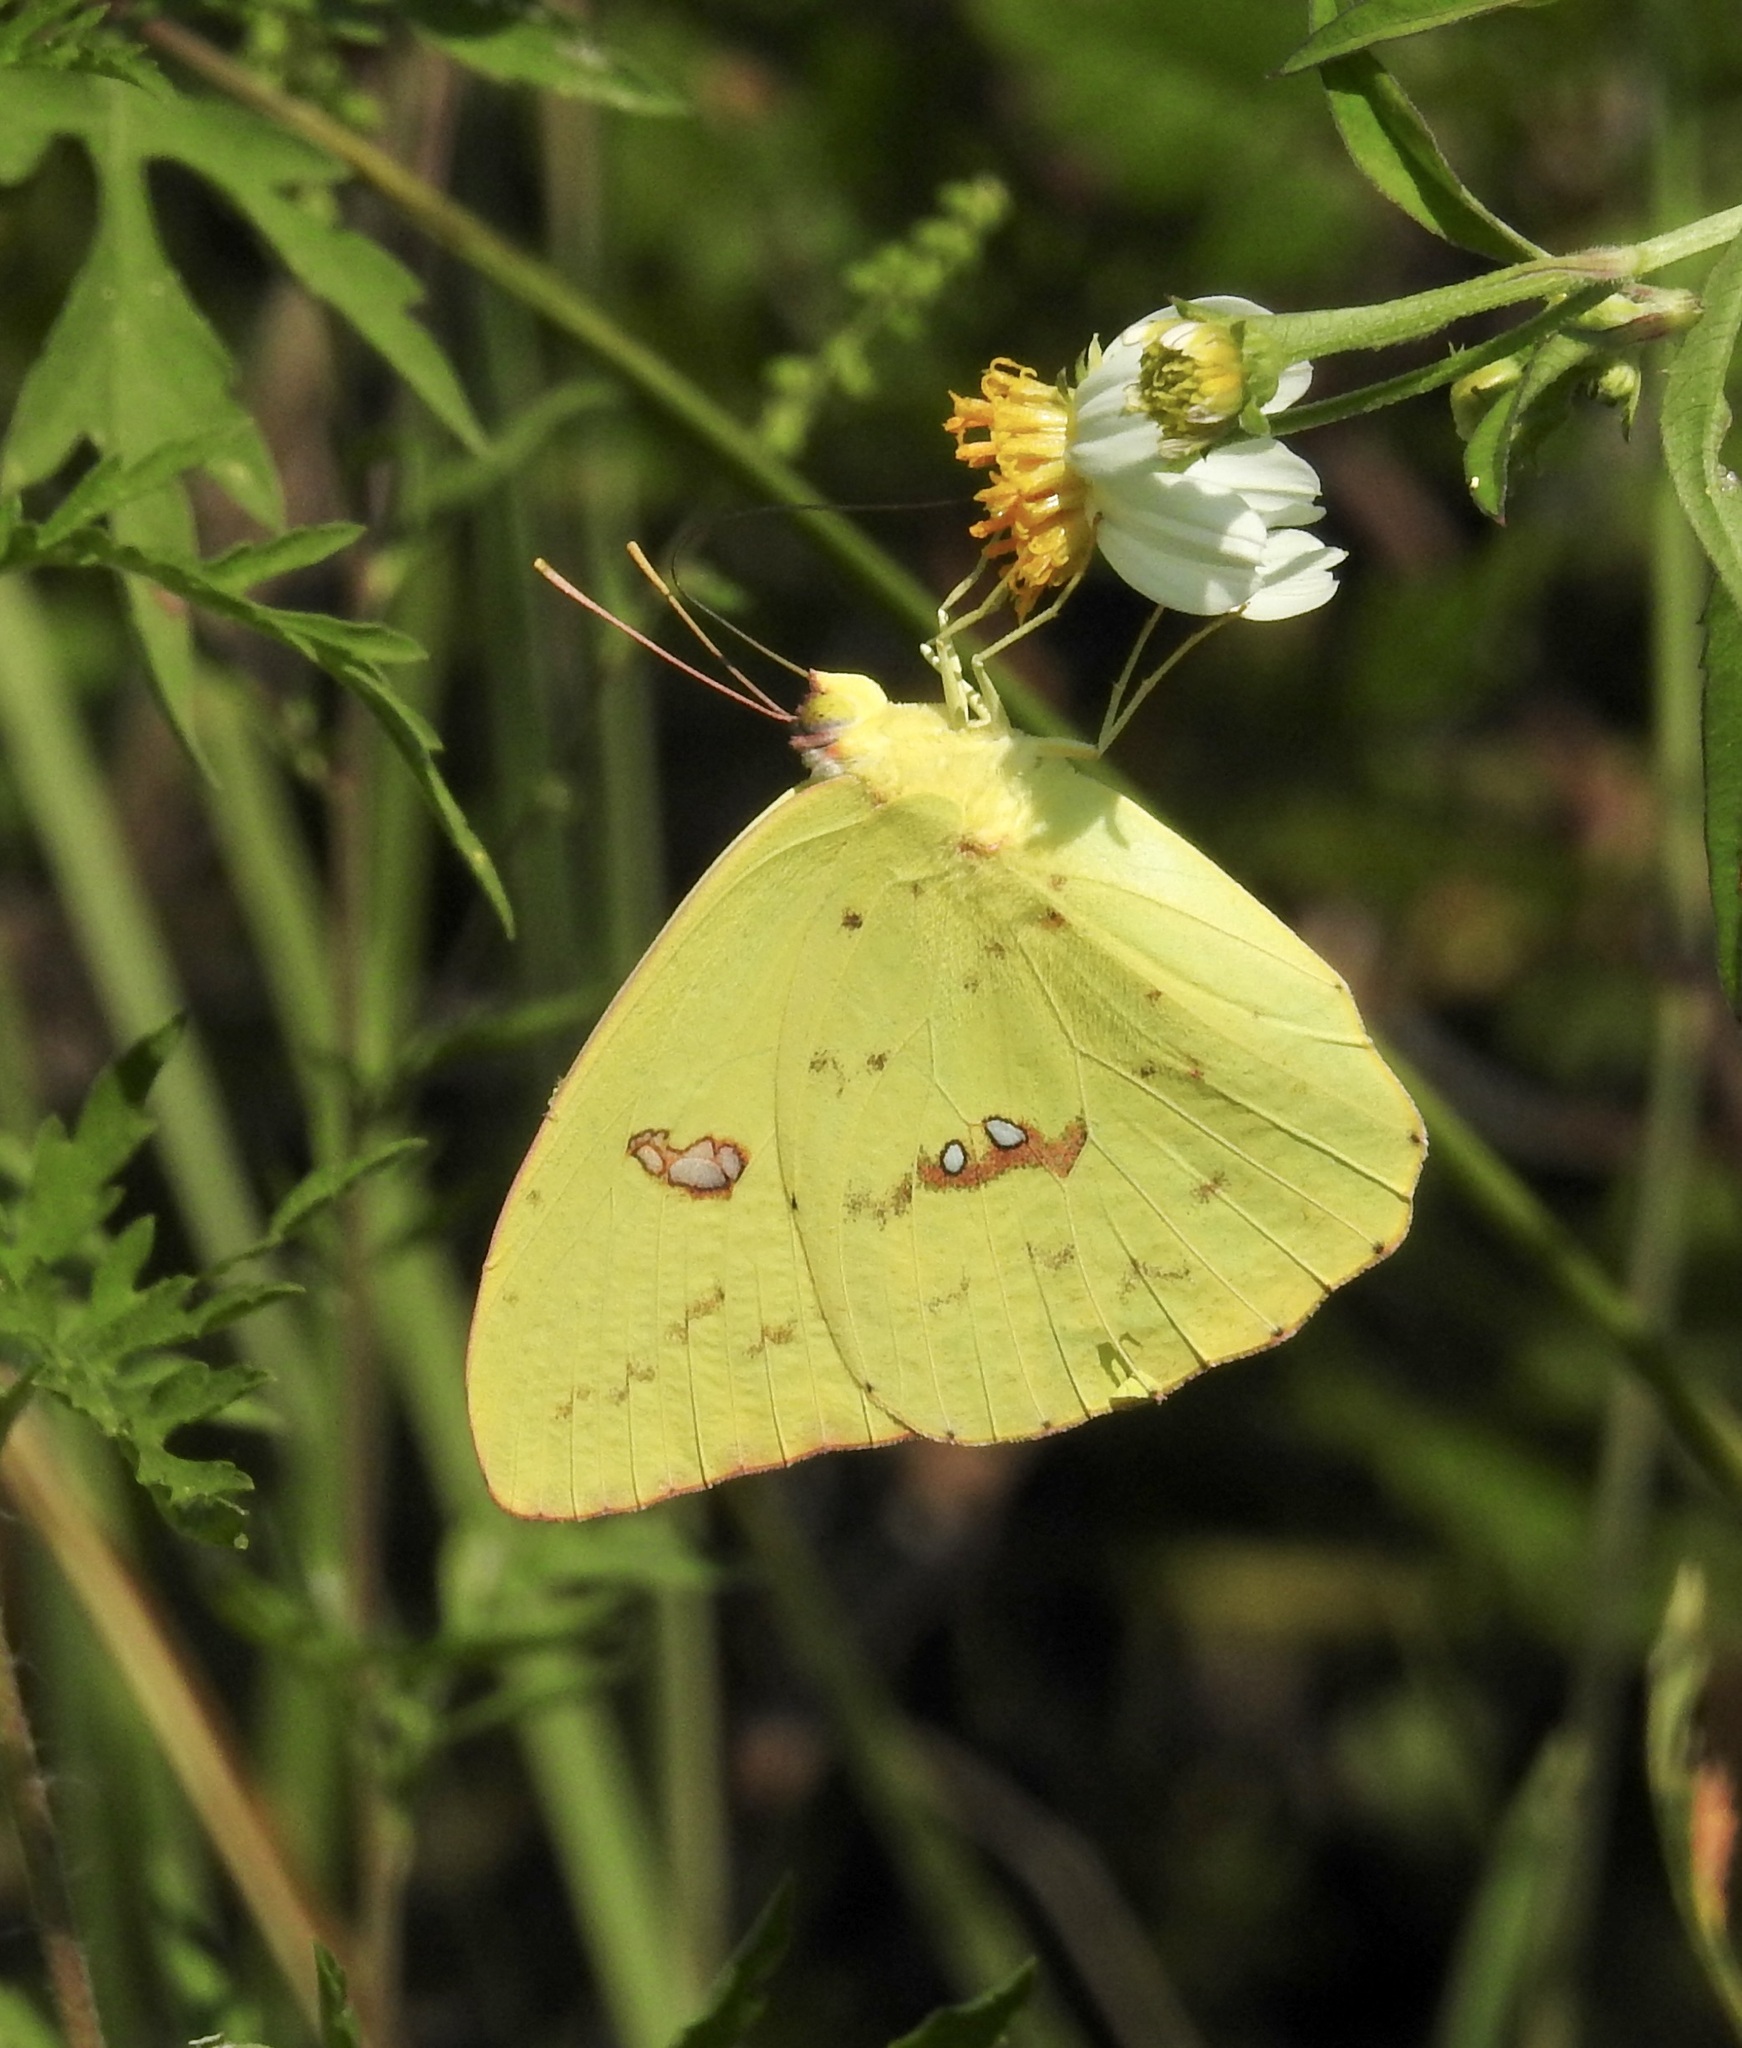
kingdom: Animalia
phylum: Arthropoda
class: Insecta
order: Lepidoptera
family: Pieridae
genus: Phoebis
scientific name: Phoebis sennae
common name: Cloudless sulphur
